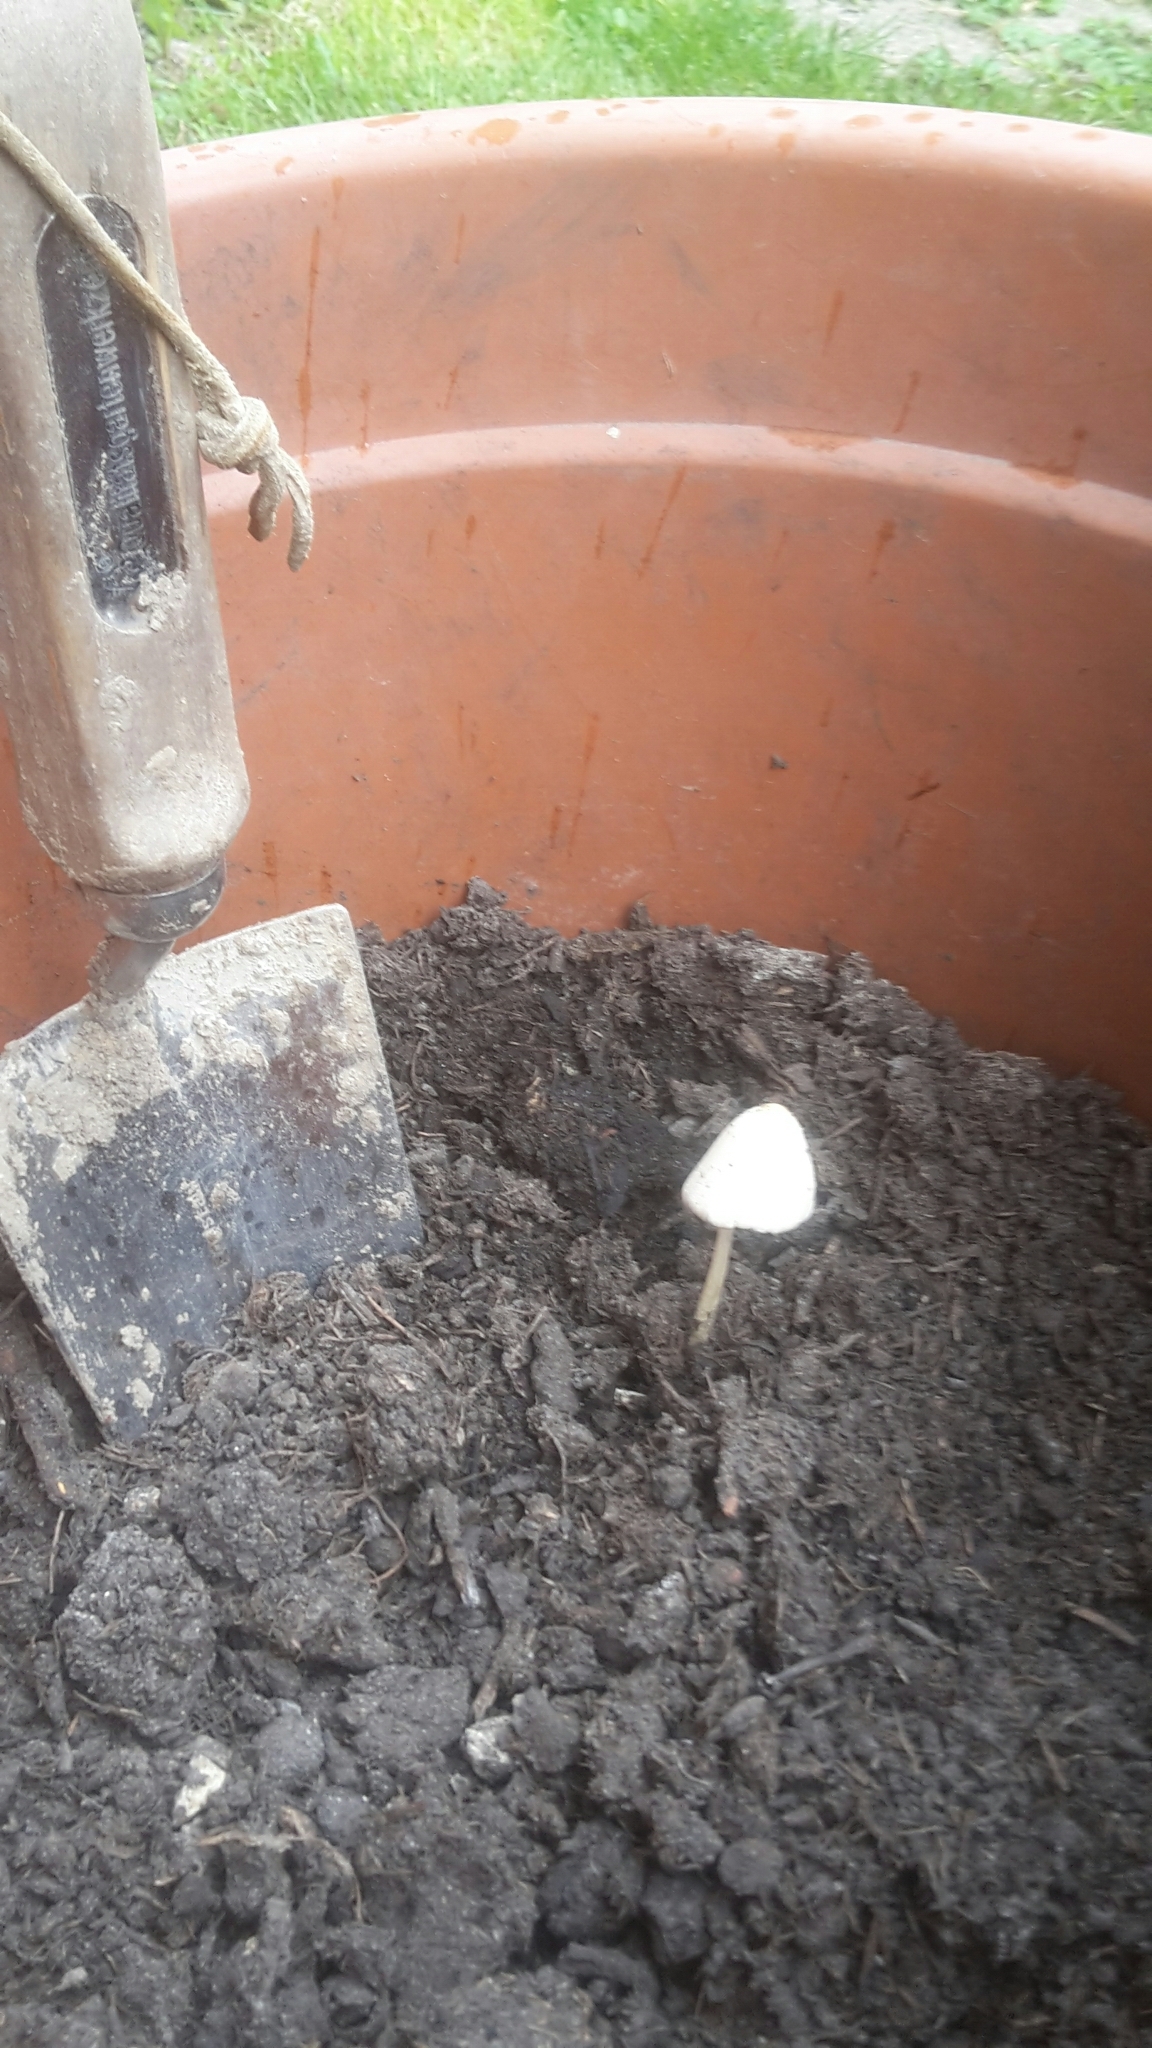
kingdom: Fungi
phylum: Basidiomycota
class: Agaricomycetes
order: Agaricales
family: Bolbitiaceae
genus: Conocybe
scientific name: Conocybe apala
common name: Milky conecap
